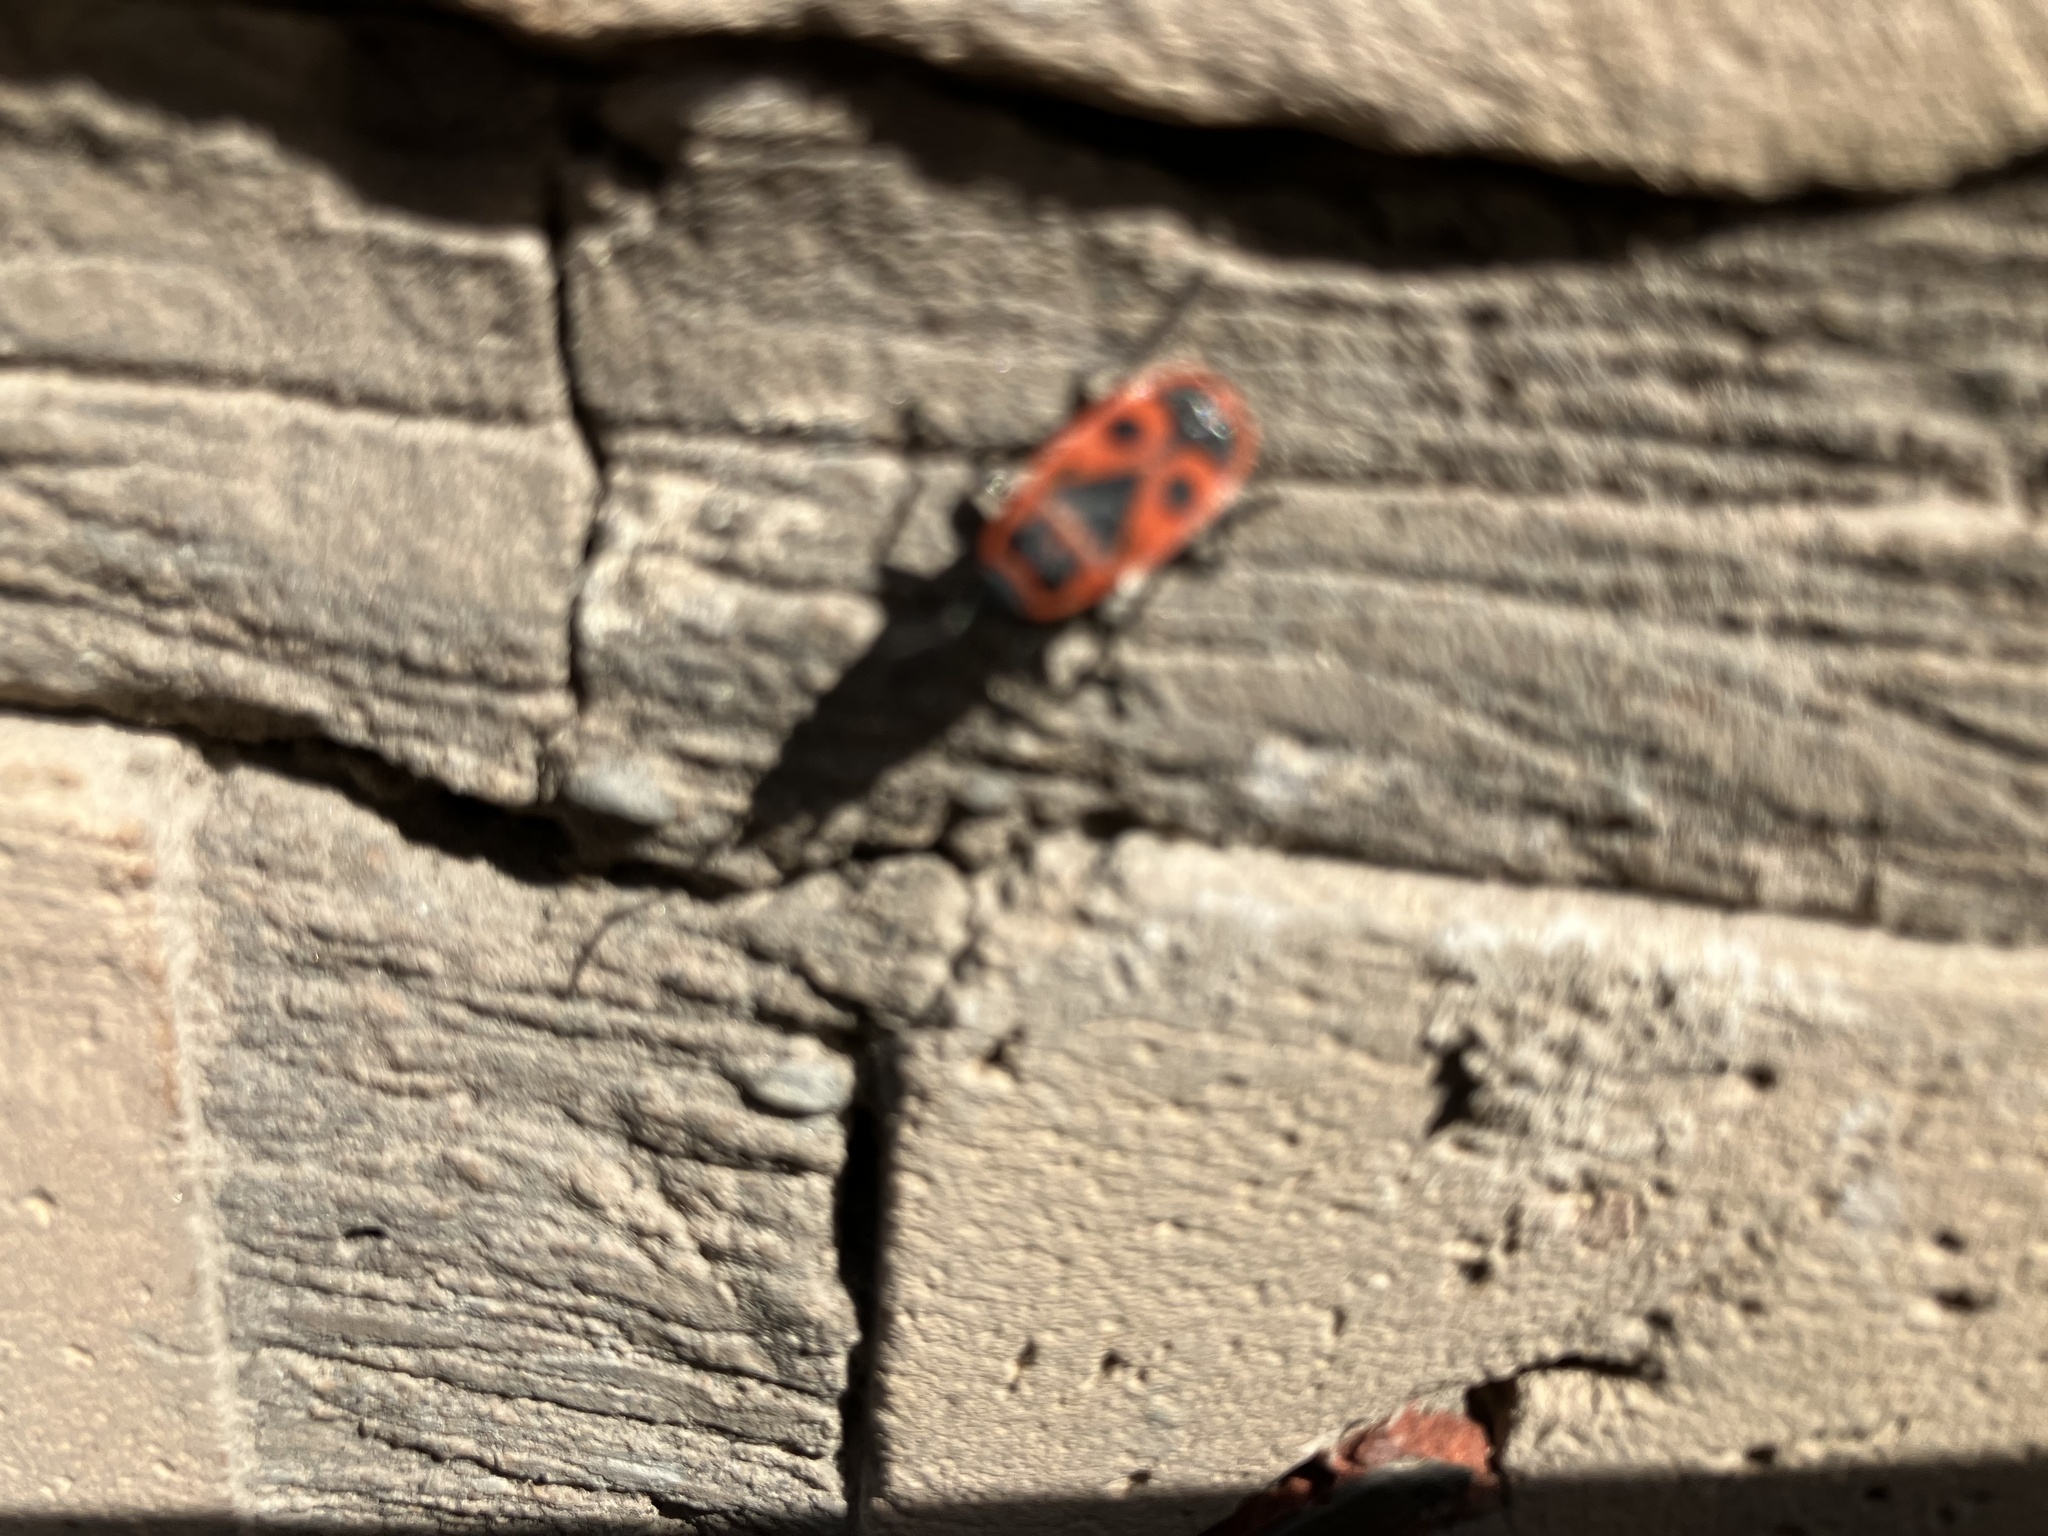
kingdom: Animalia
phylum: Arthropoda
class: Insecta
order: Hemiptera
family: Pyrrhocoridae
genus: Pyrrhocoris
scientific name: Pyrrhocoris apterus
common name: Firebug
